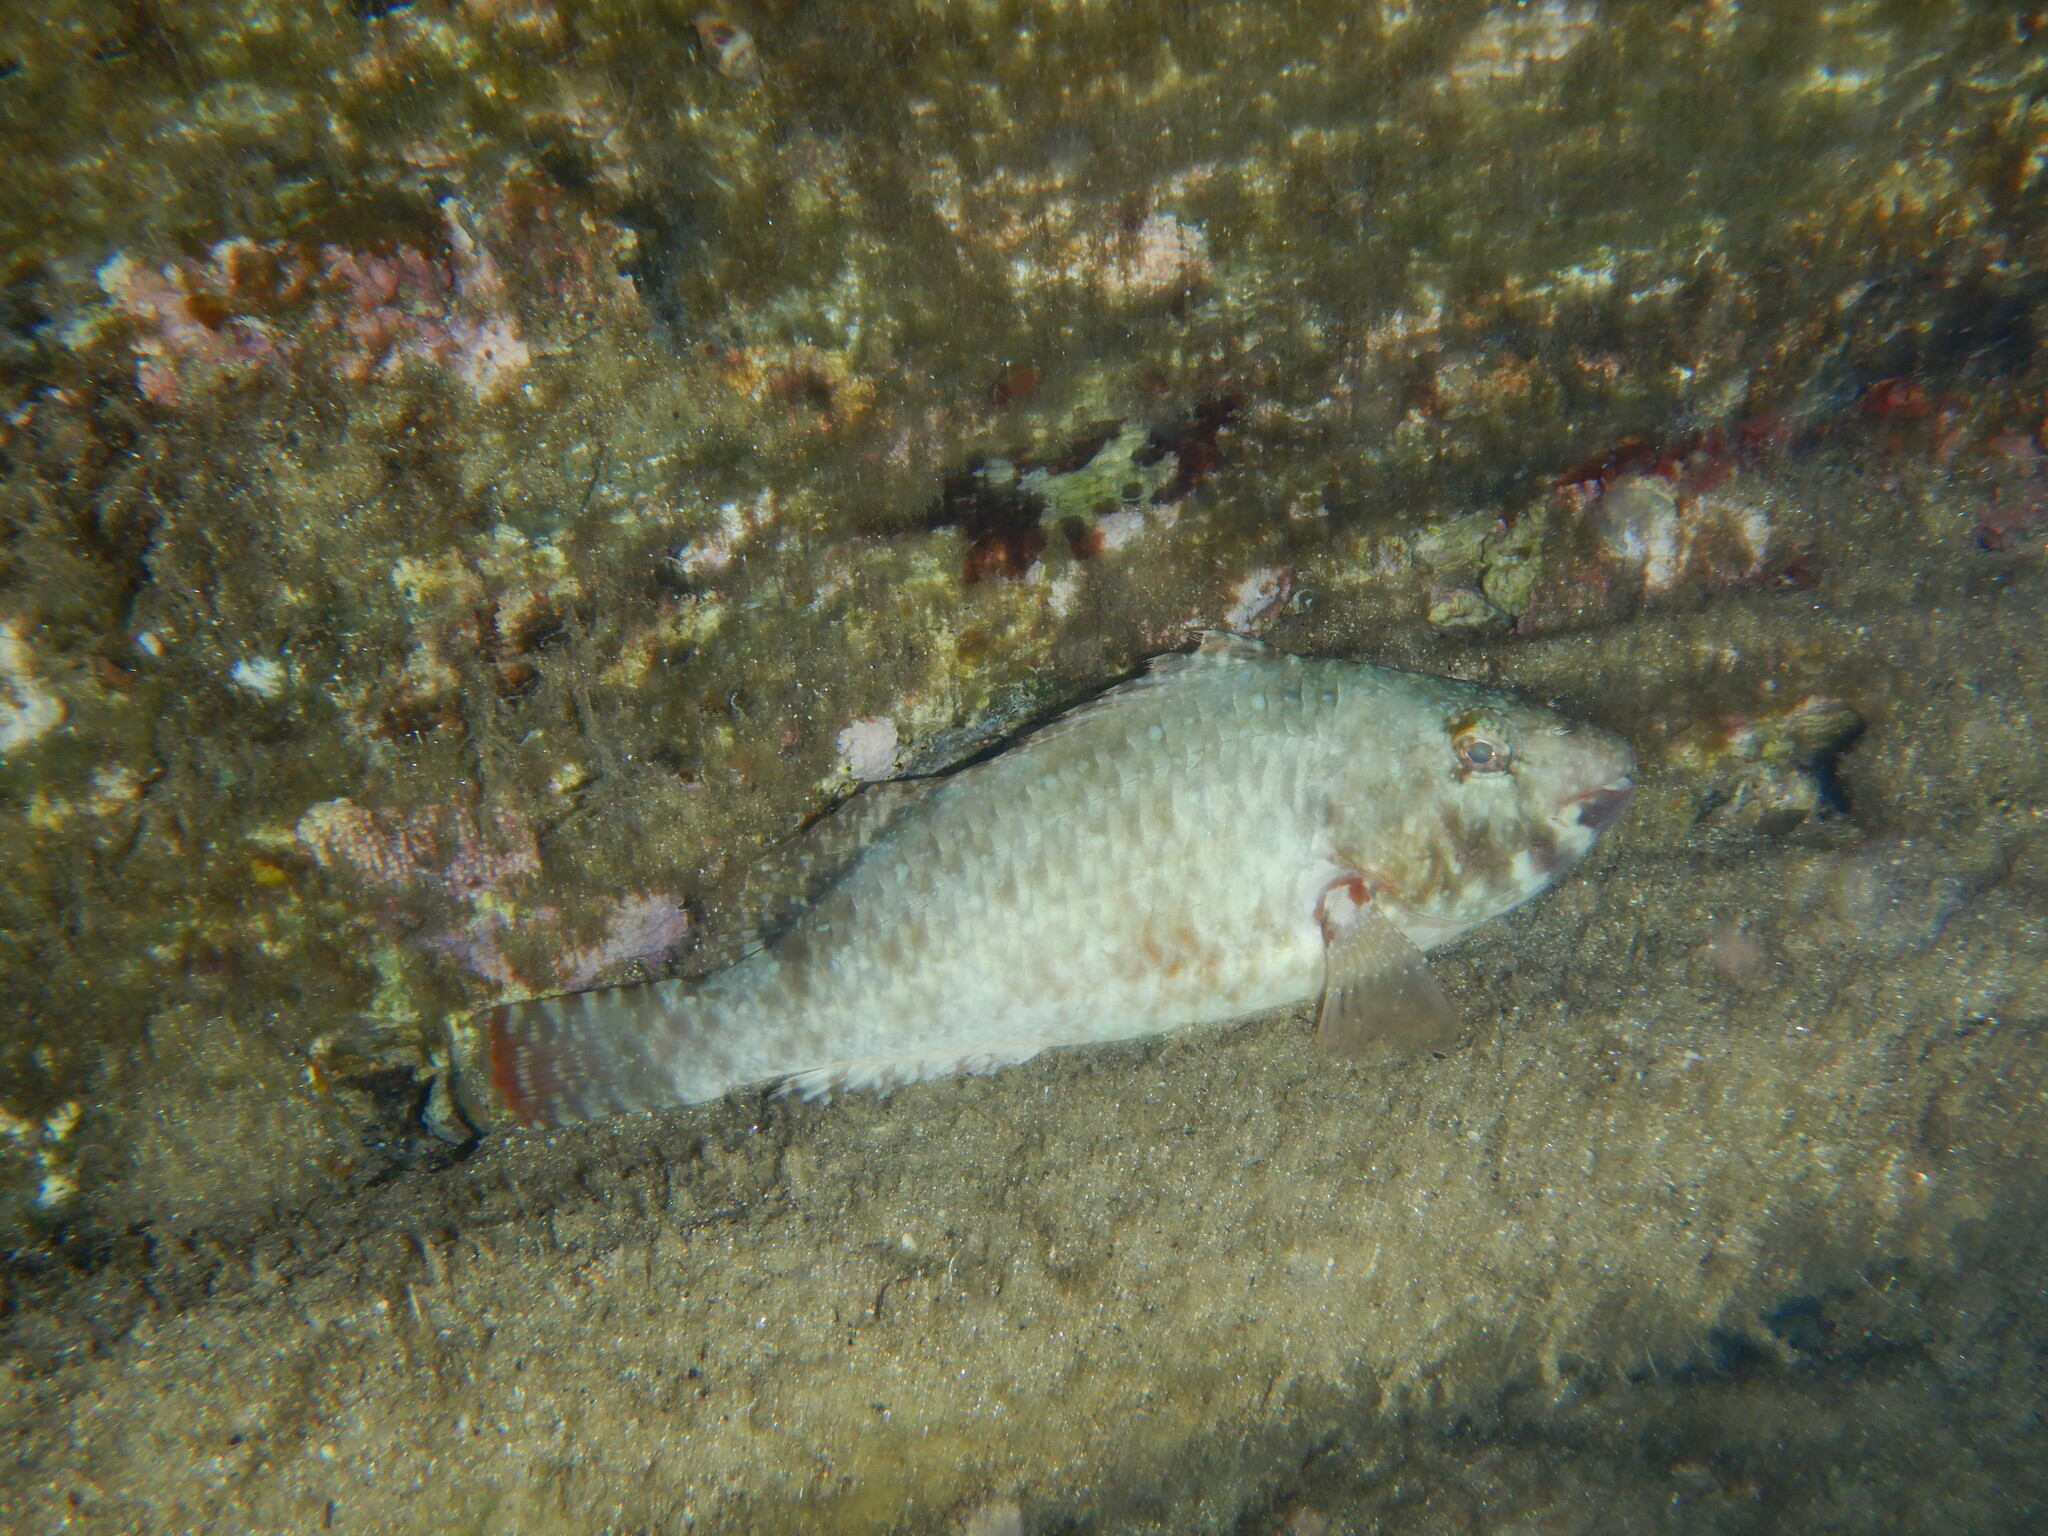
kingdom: Animalia
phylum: Chordata
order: Perciformes
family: Scaridae
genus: Sparisoma
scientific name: Sparisoma cretense
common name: Parrotfish
